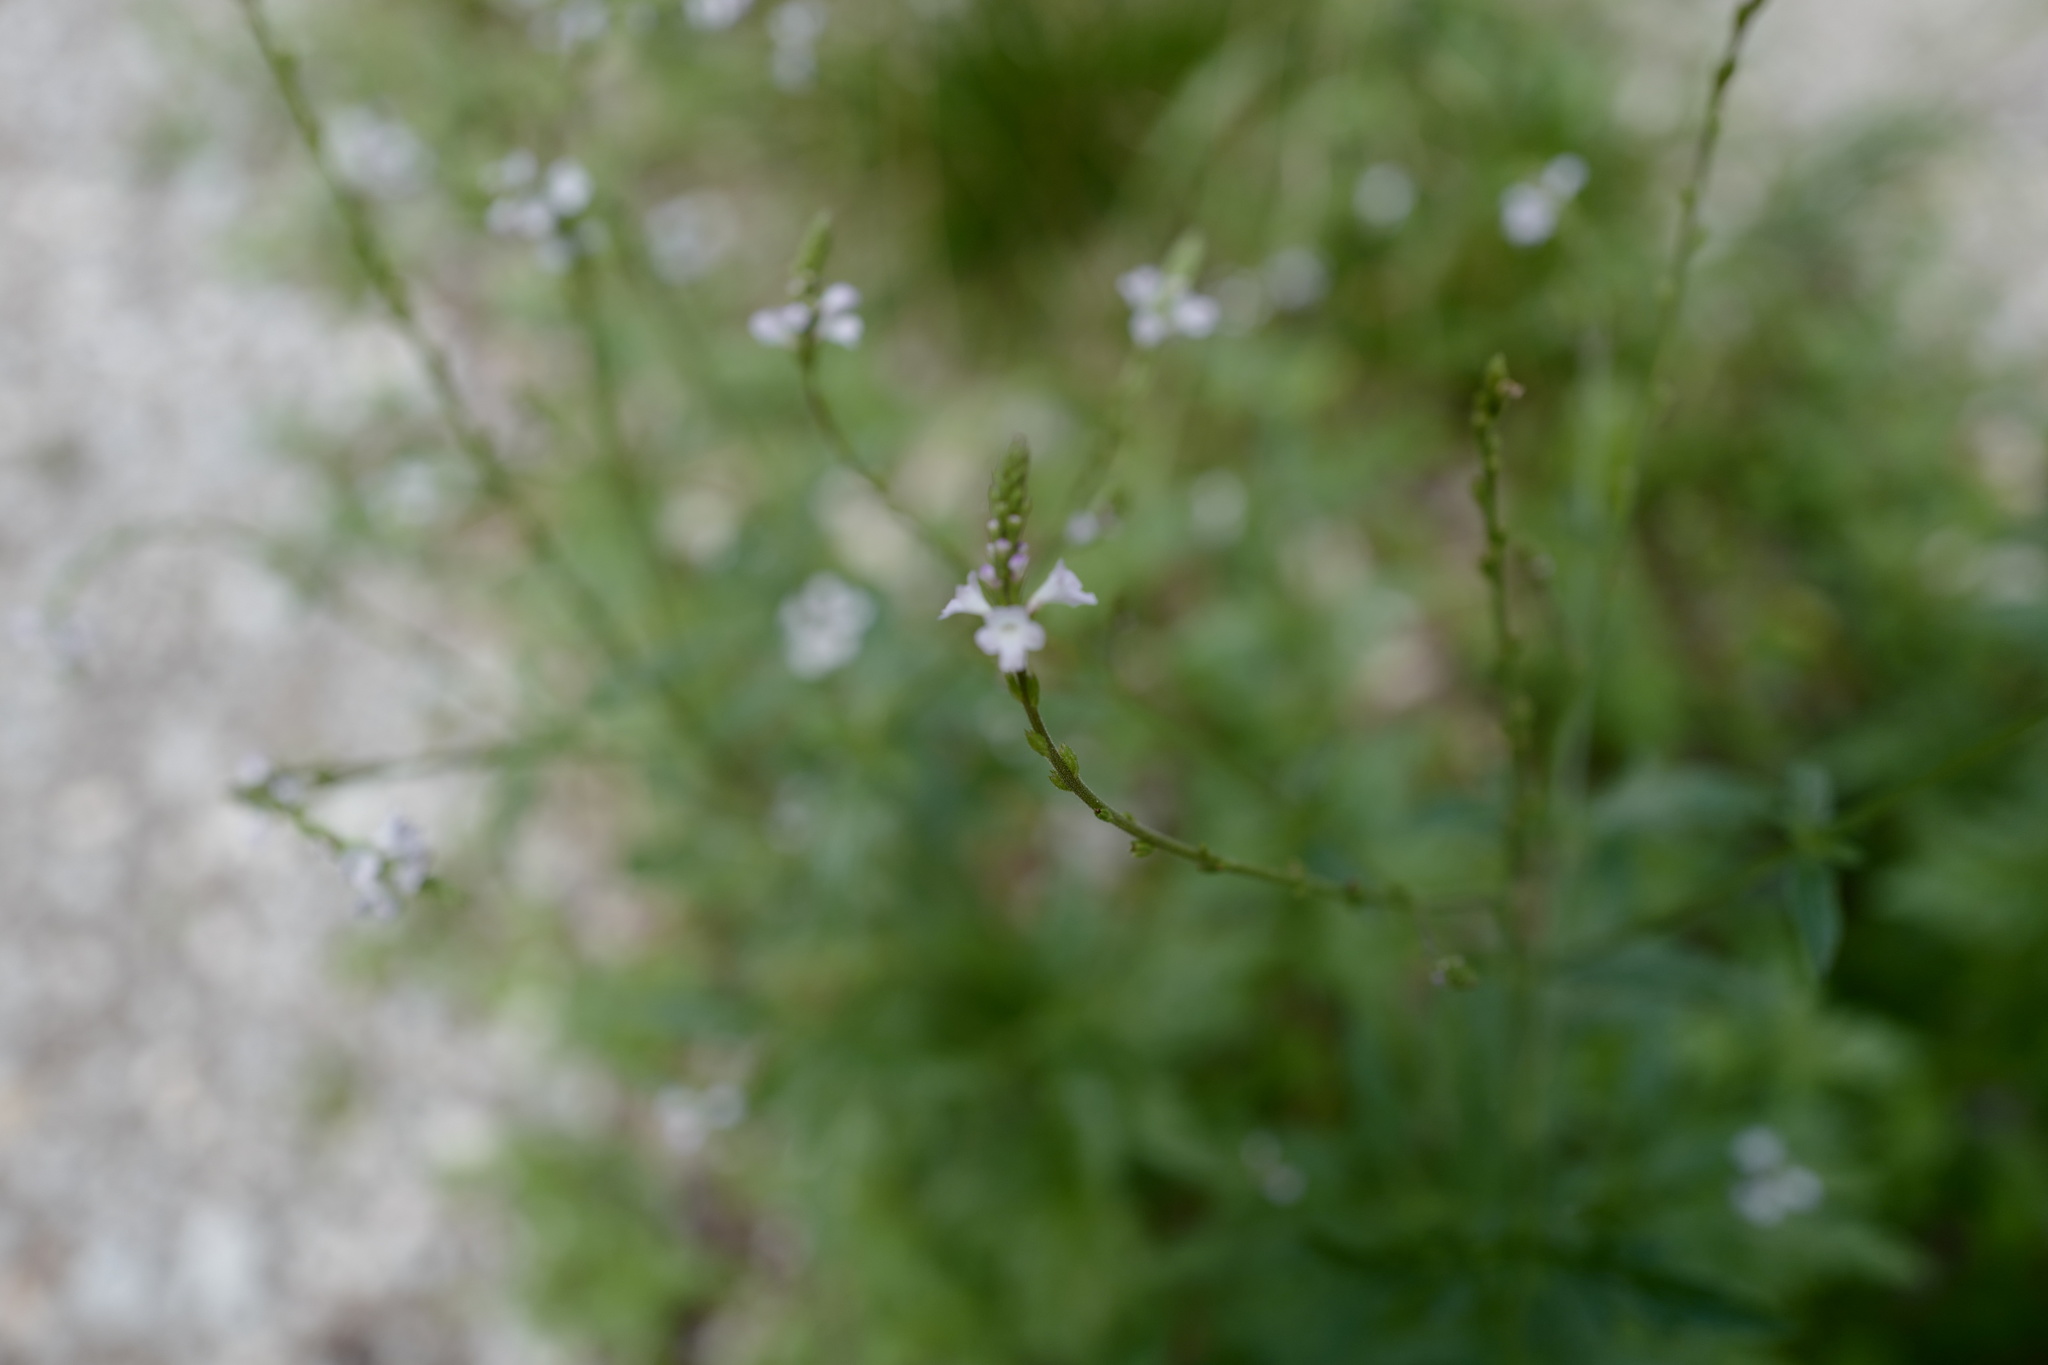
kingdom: Plantae
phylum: Tracheophyta
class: Magnoliopsida
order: Lamiales
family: Verbenaceae
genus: Verbena
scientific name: Verbena officinalis
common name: Vervain
